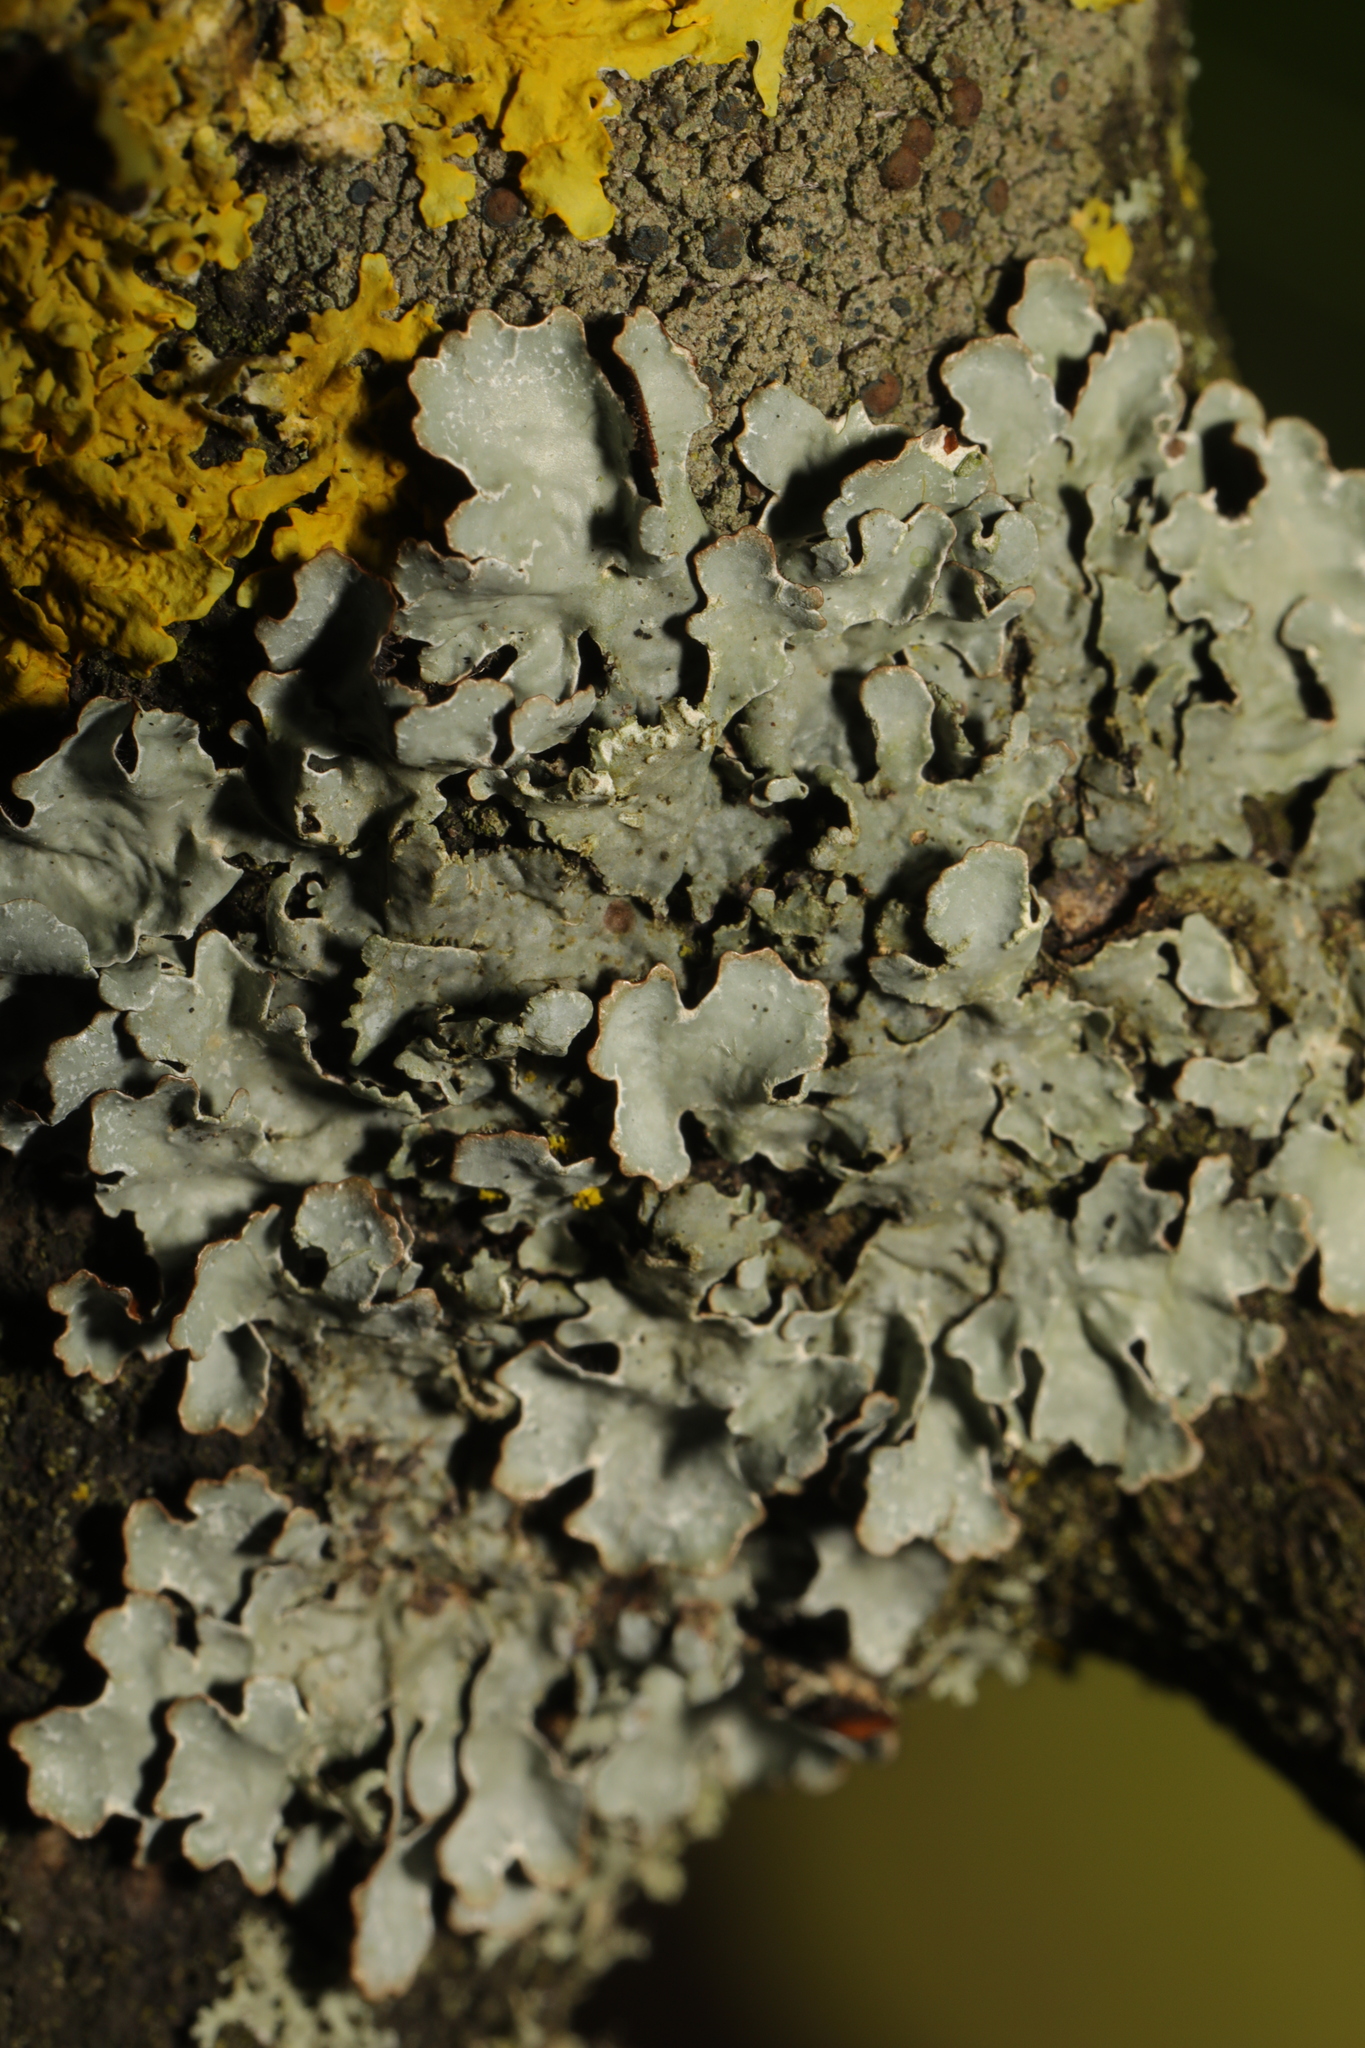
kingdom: Fungi
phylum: Ascomycota
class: Lecanoromycetes
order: Lecanorales
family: Parmeliaceae
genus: Parmelia
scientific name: Parmelia sulcata
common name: Netted shield lichen
